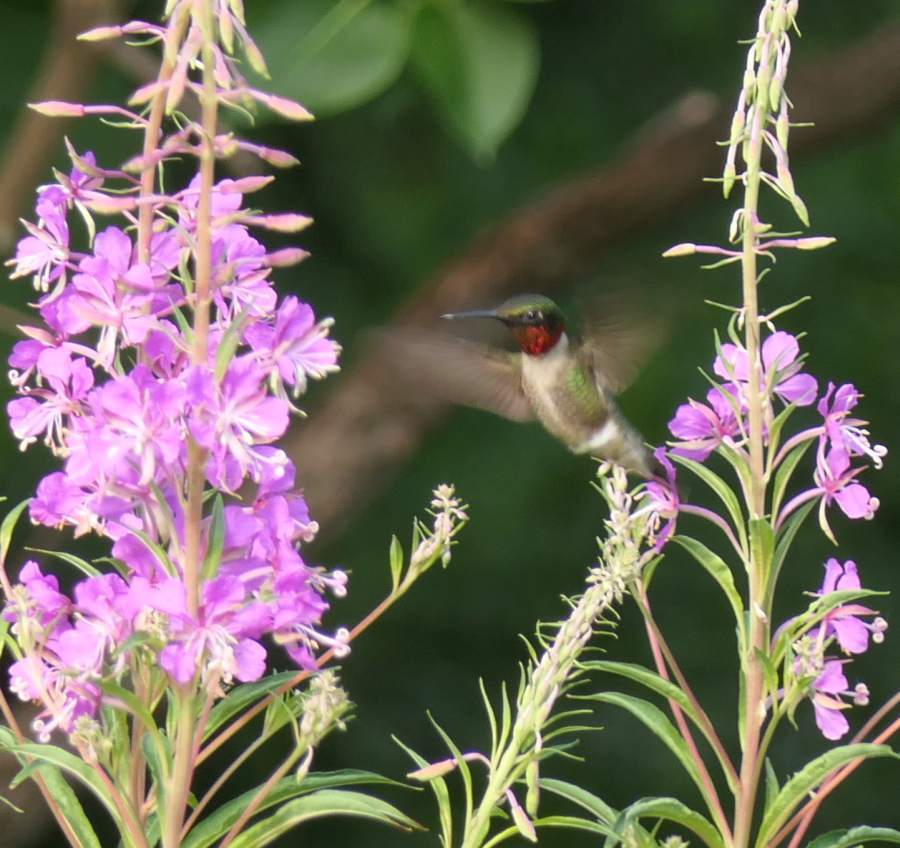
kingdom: Animalia
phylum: Chordata
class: Aves
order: Apodiformes
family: Trochilidae
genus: Archilochus
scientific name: Archilochus colubris
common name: Ruby-throated hummingbird
